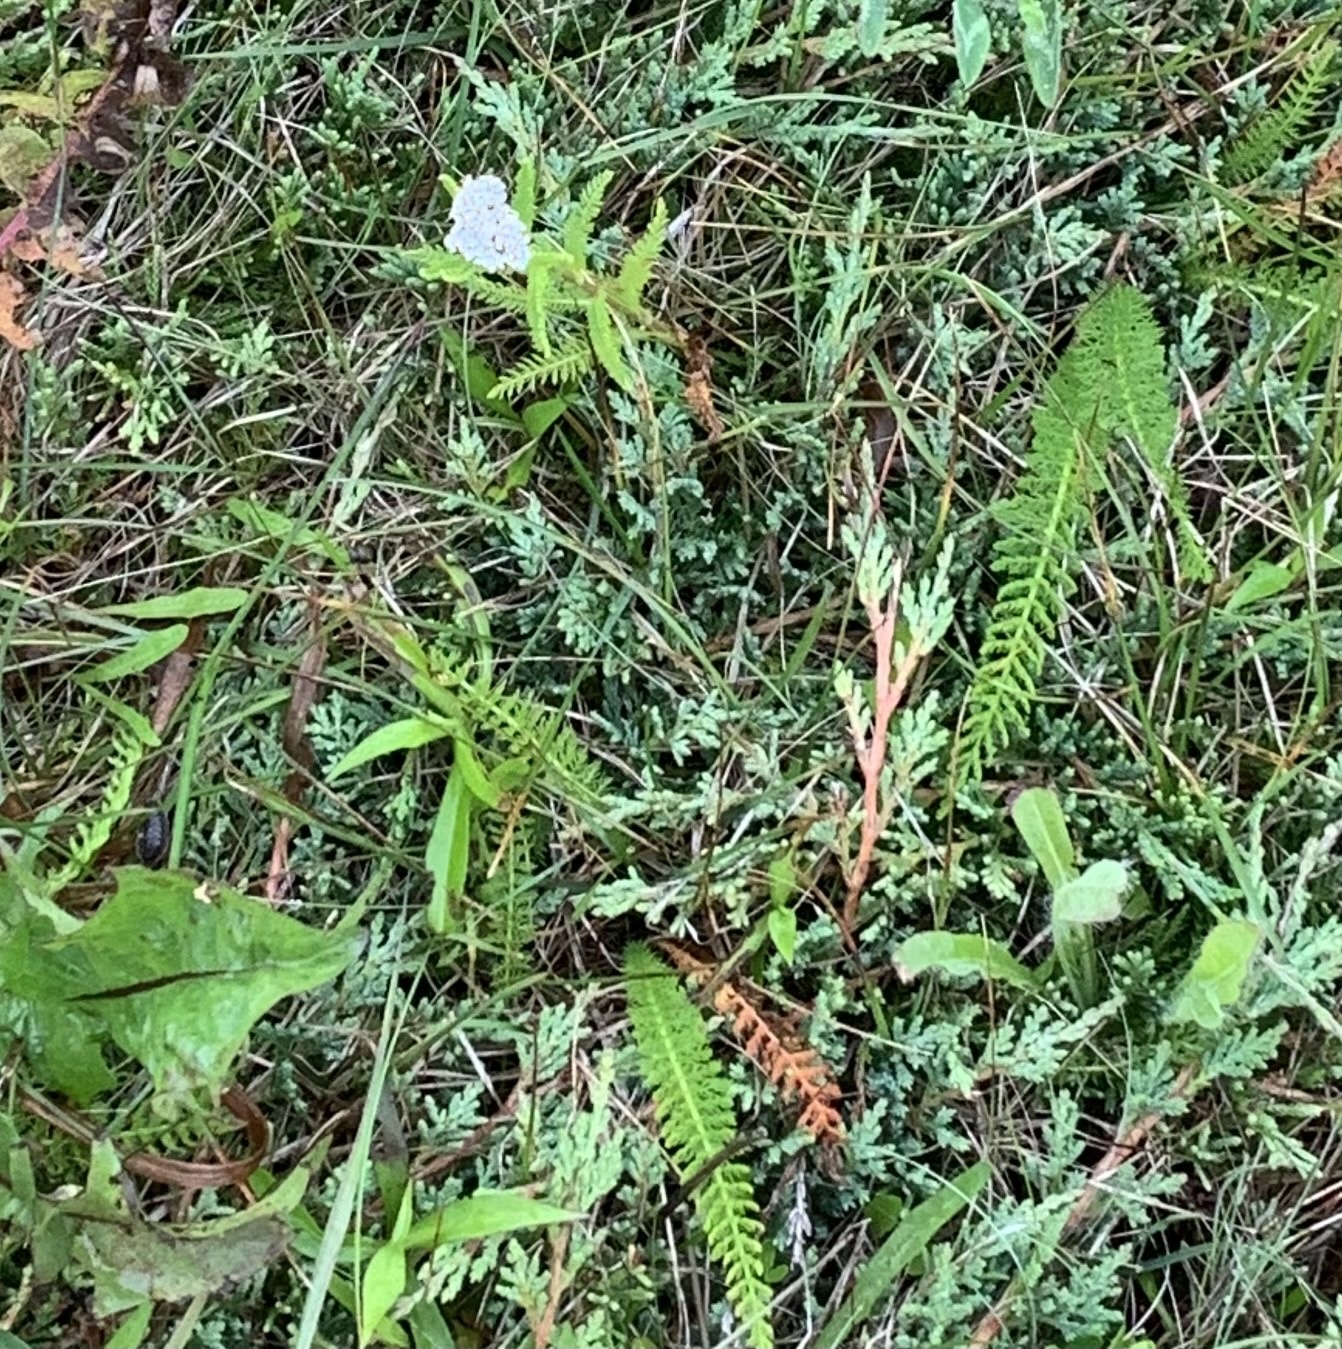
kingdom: Plantae
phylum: Tracheophyta
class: Magnoliopsida
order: Asterales
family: Asteraceae
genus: Achillea
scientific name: Achillea millefolium
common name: Yarrow
